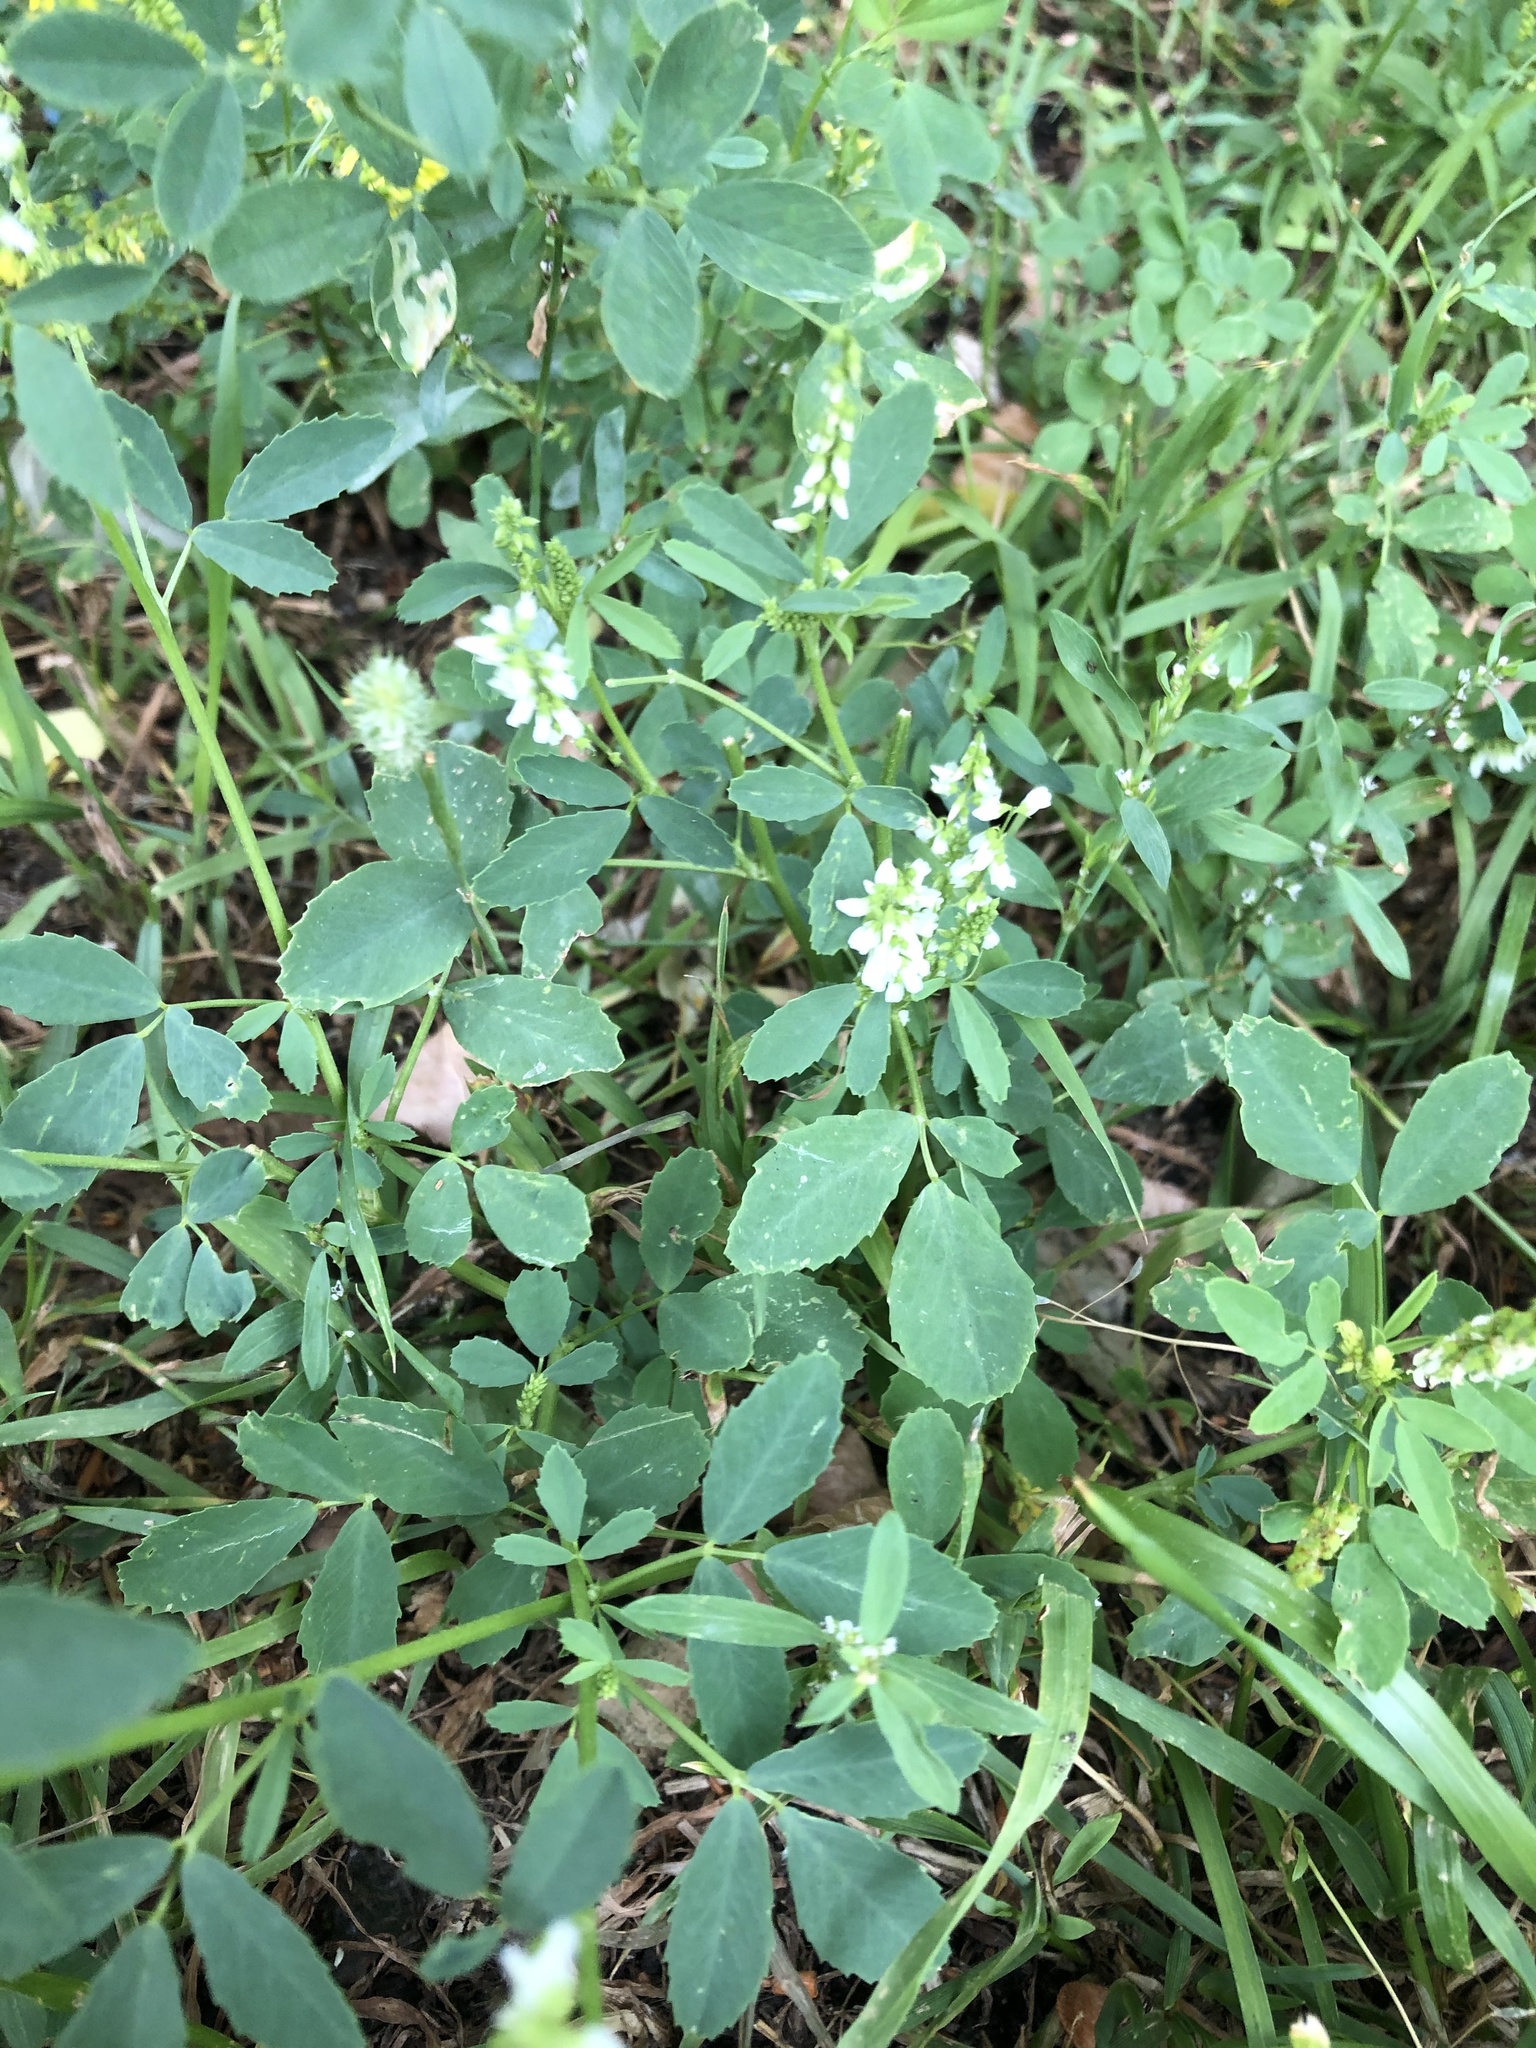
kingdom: Plantae
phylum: Tracheophyta
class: Magnoliopsida
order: Fabales
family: Fabaceae
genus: Melilotus
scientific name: Melilotus albus
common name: White melilot
